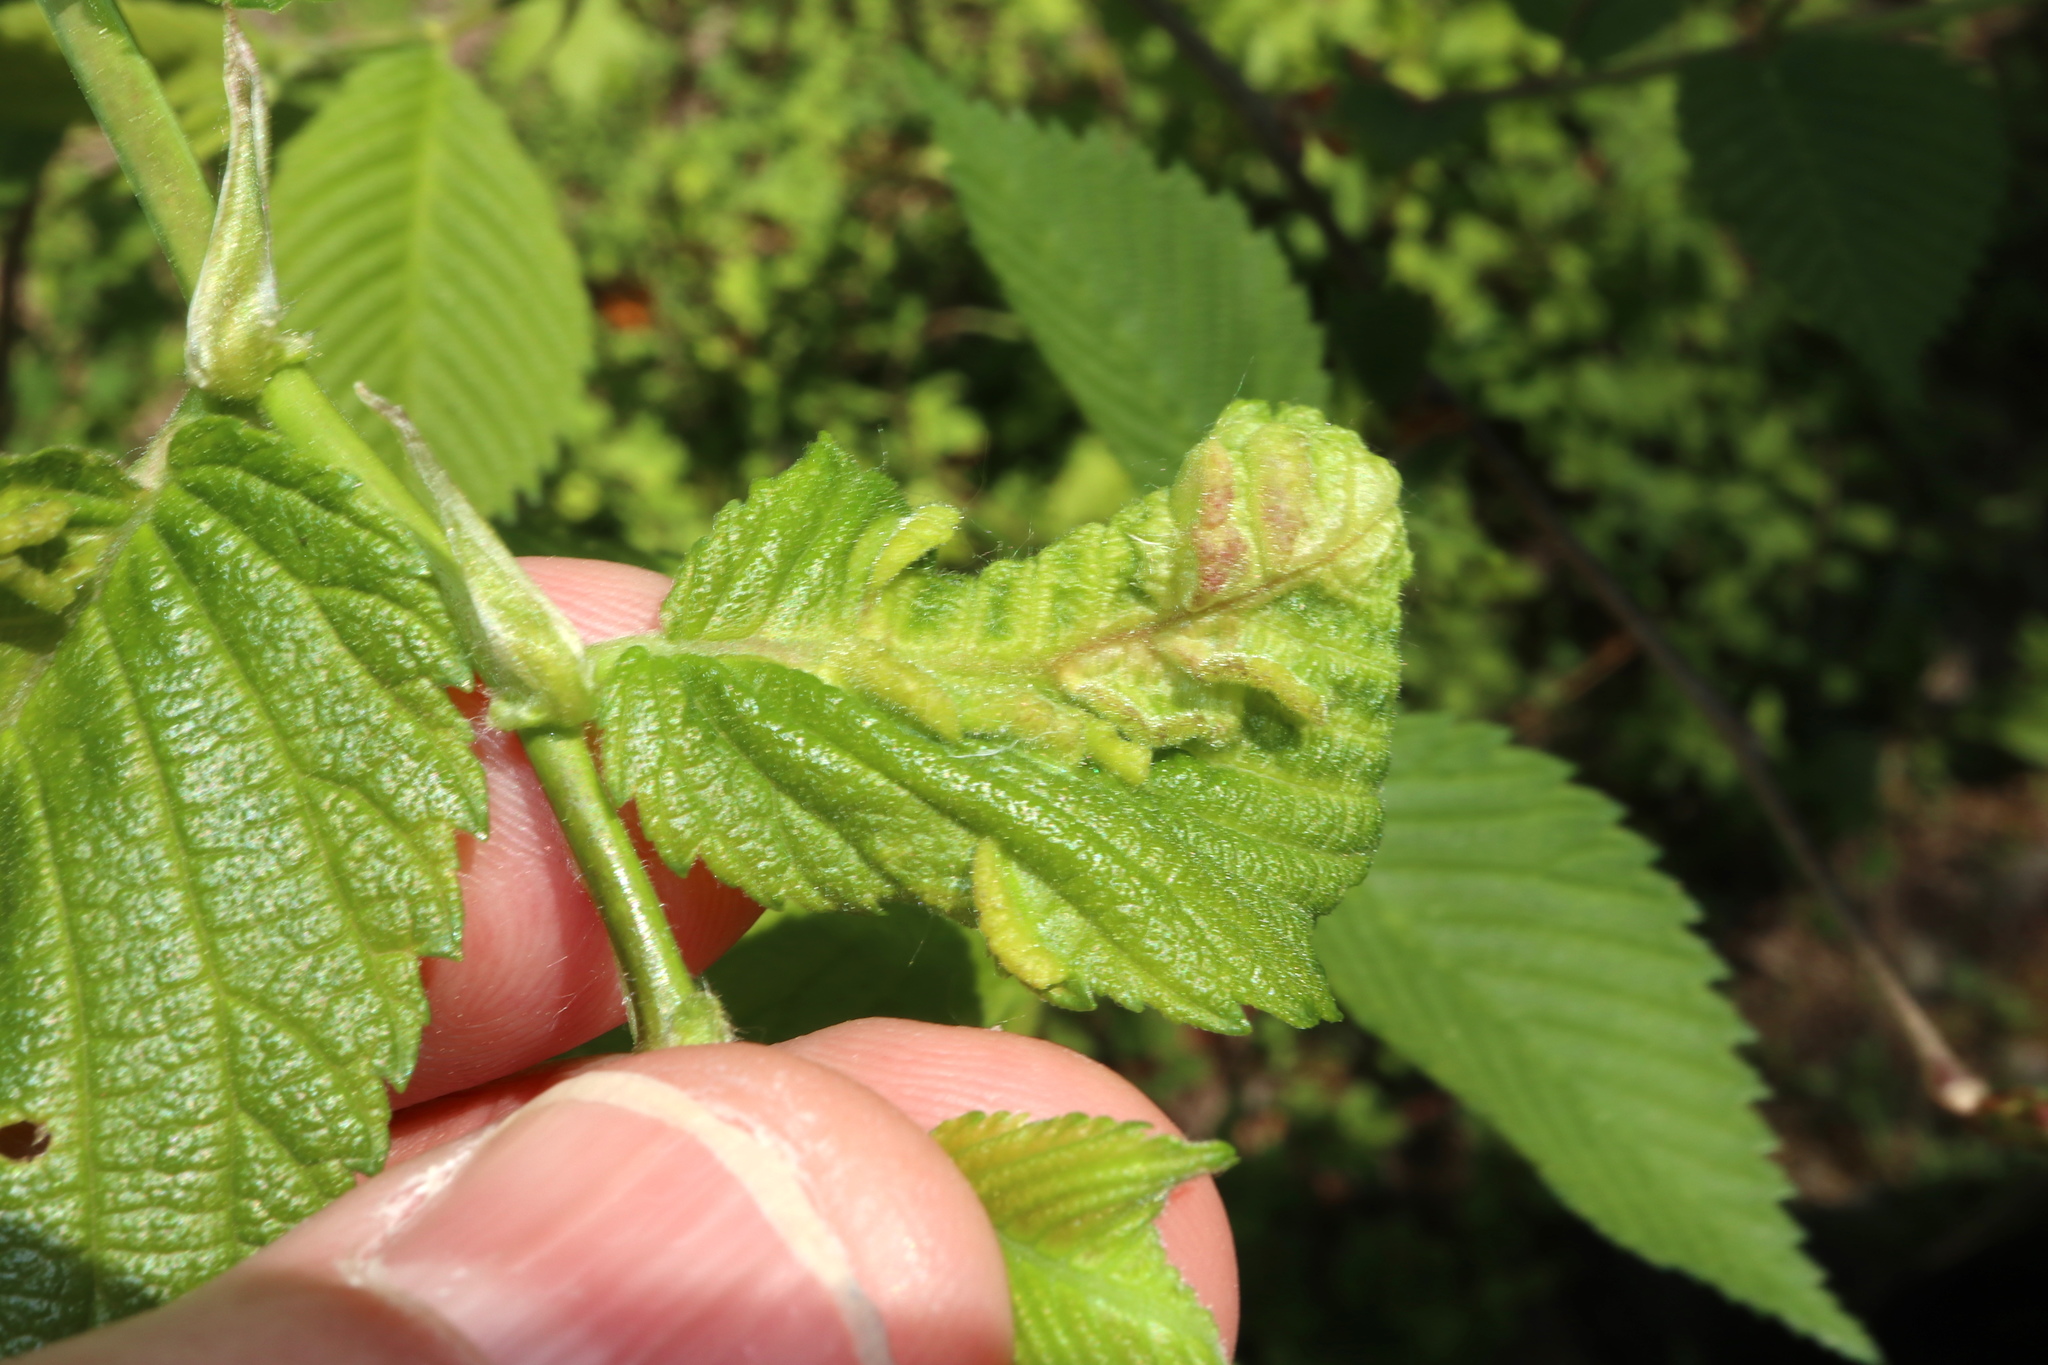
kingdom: Animalia
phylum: Arthropoda
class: Insecta
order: Hemiptera
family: Aphididae
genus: Colopha
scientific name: Colopha ulmicola
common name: Elm cockscombgall aphid
